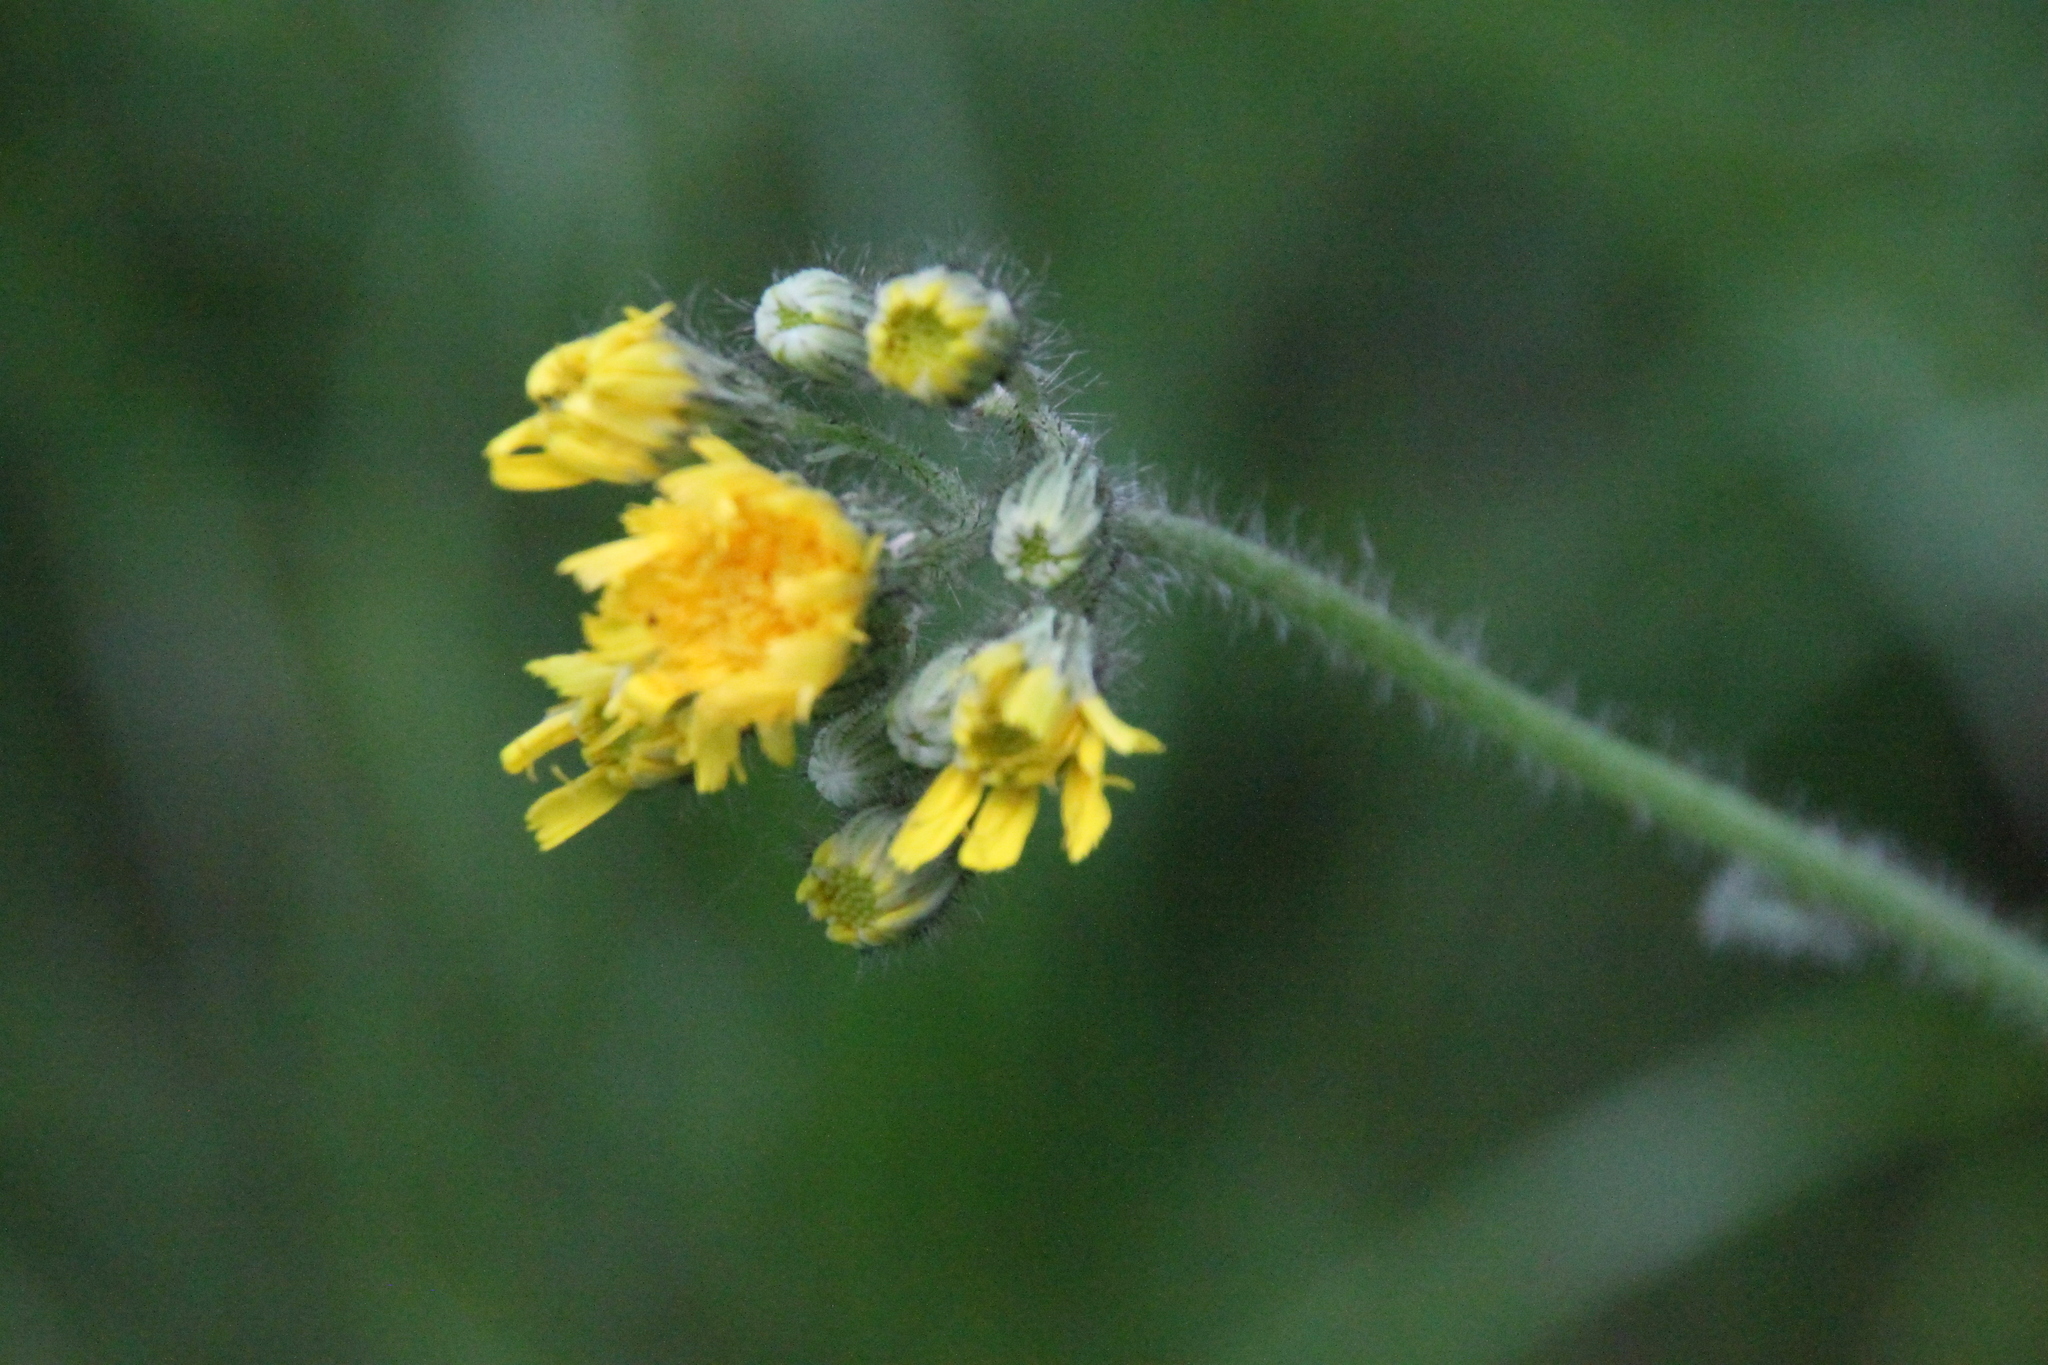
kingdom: Plantae
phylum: Tracheophyta
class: Magnoliopsida
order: Asterales
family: Asteraceae
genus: Pilosella
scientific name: Pilosella
